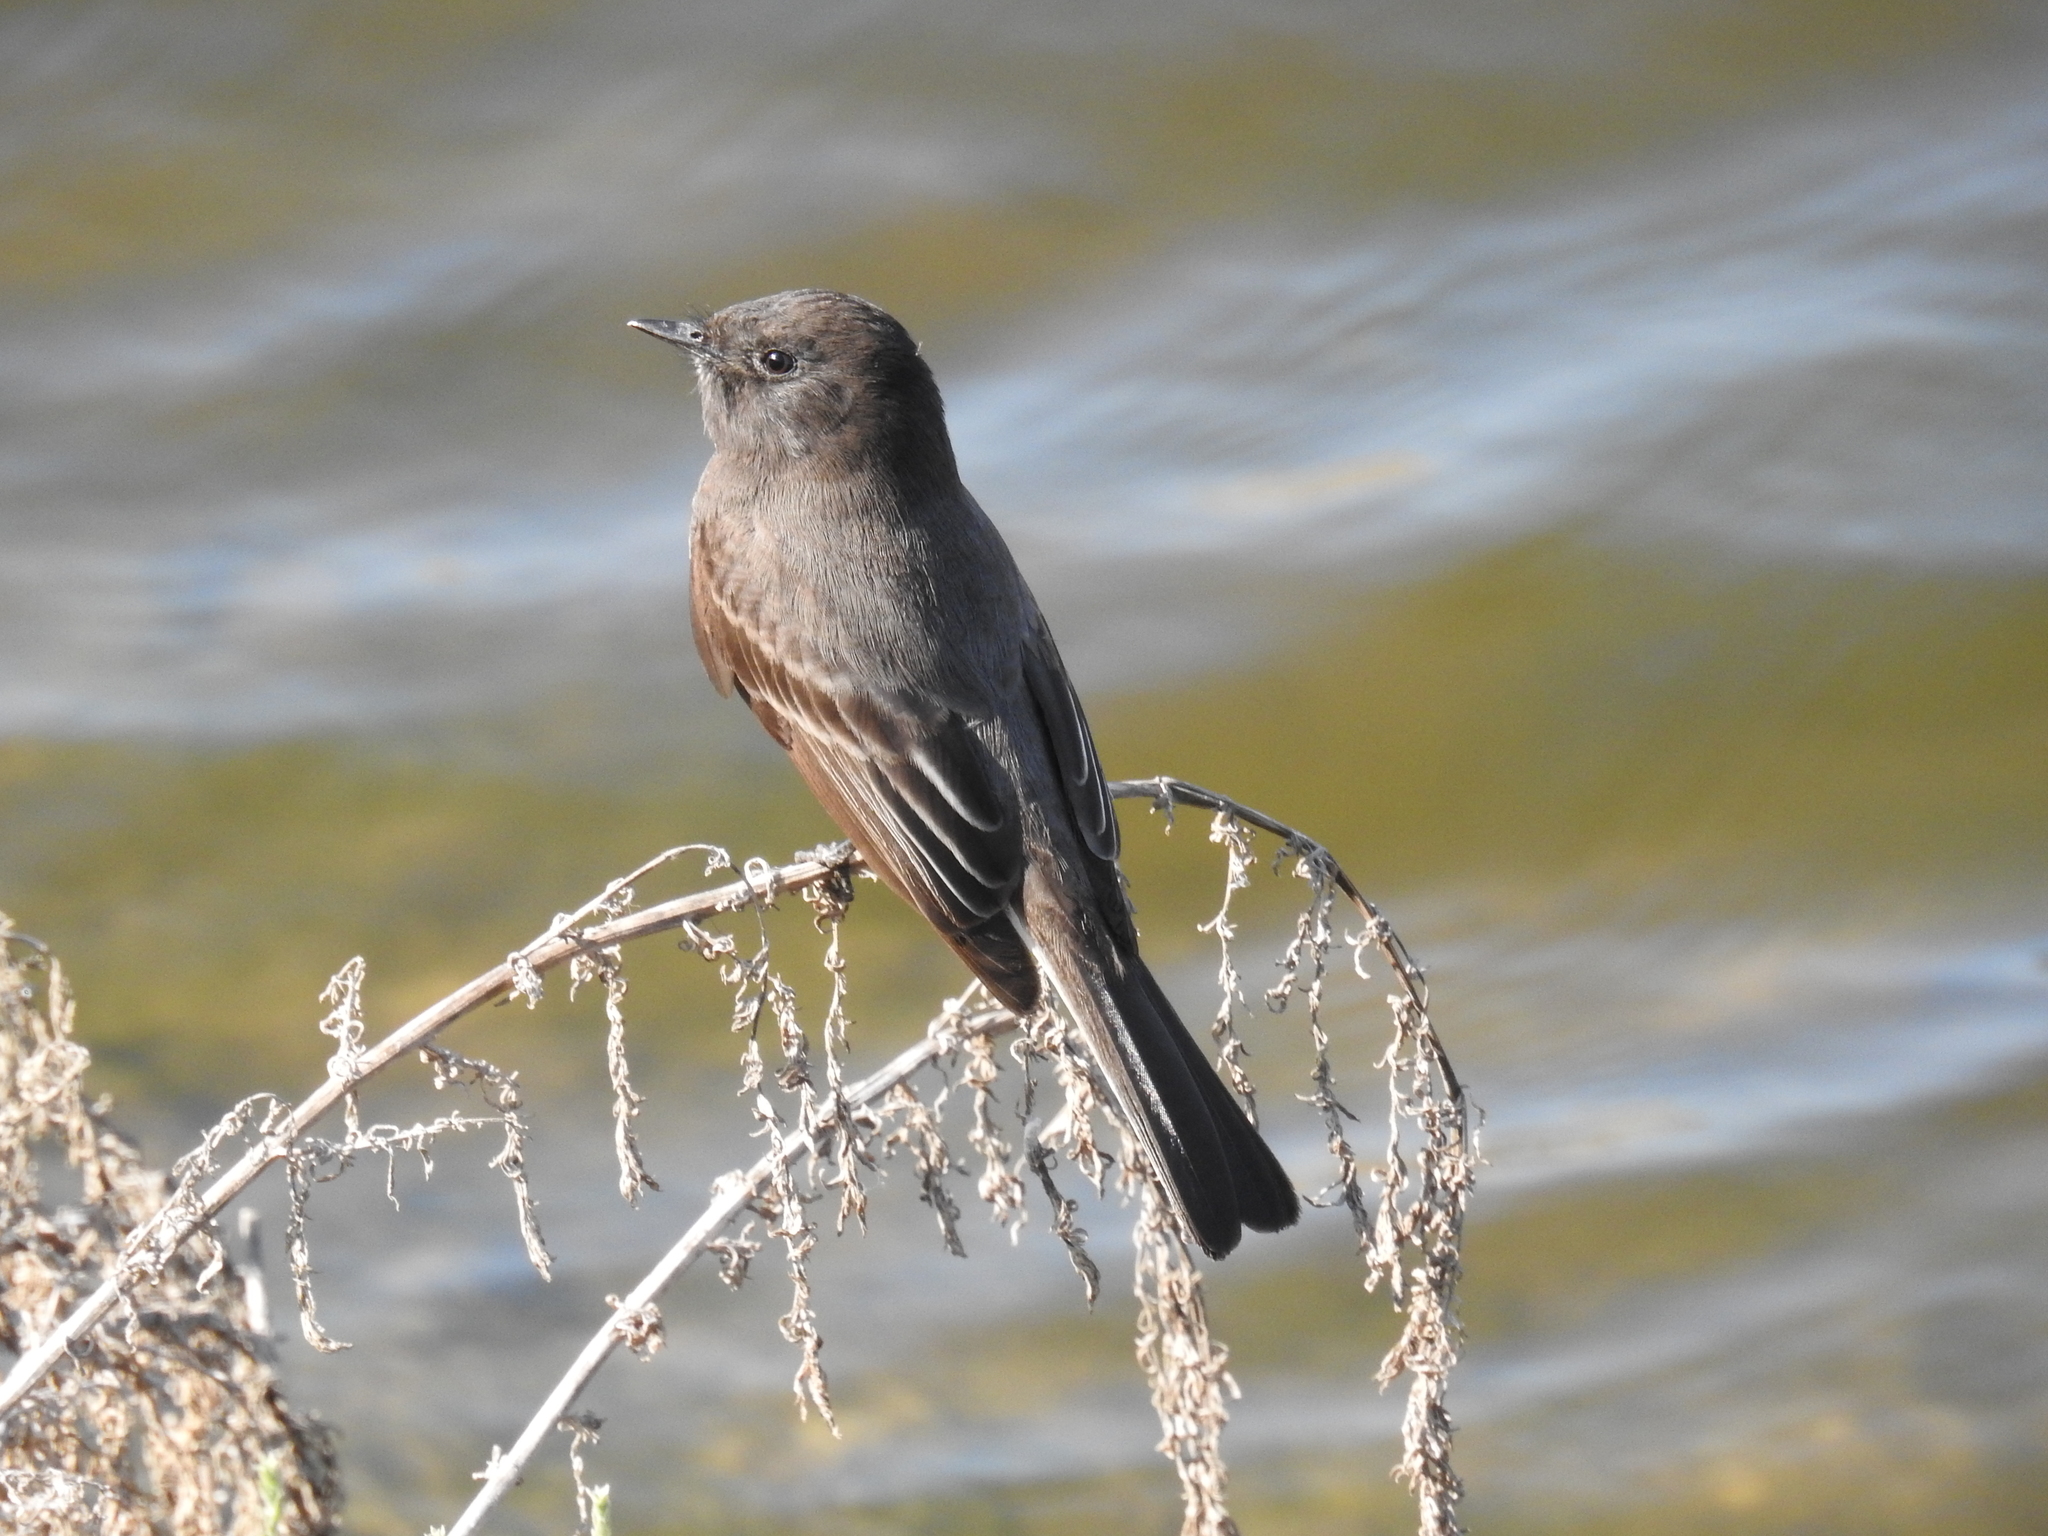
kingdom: Animalia
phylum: Chordata
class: Aves
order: Passeriformes
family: Tyrannidae
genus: Sayornis
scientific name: Sayornis nigricans
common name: Black phoebe
